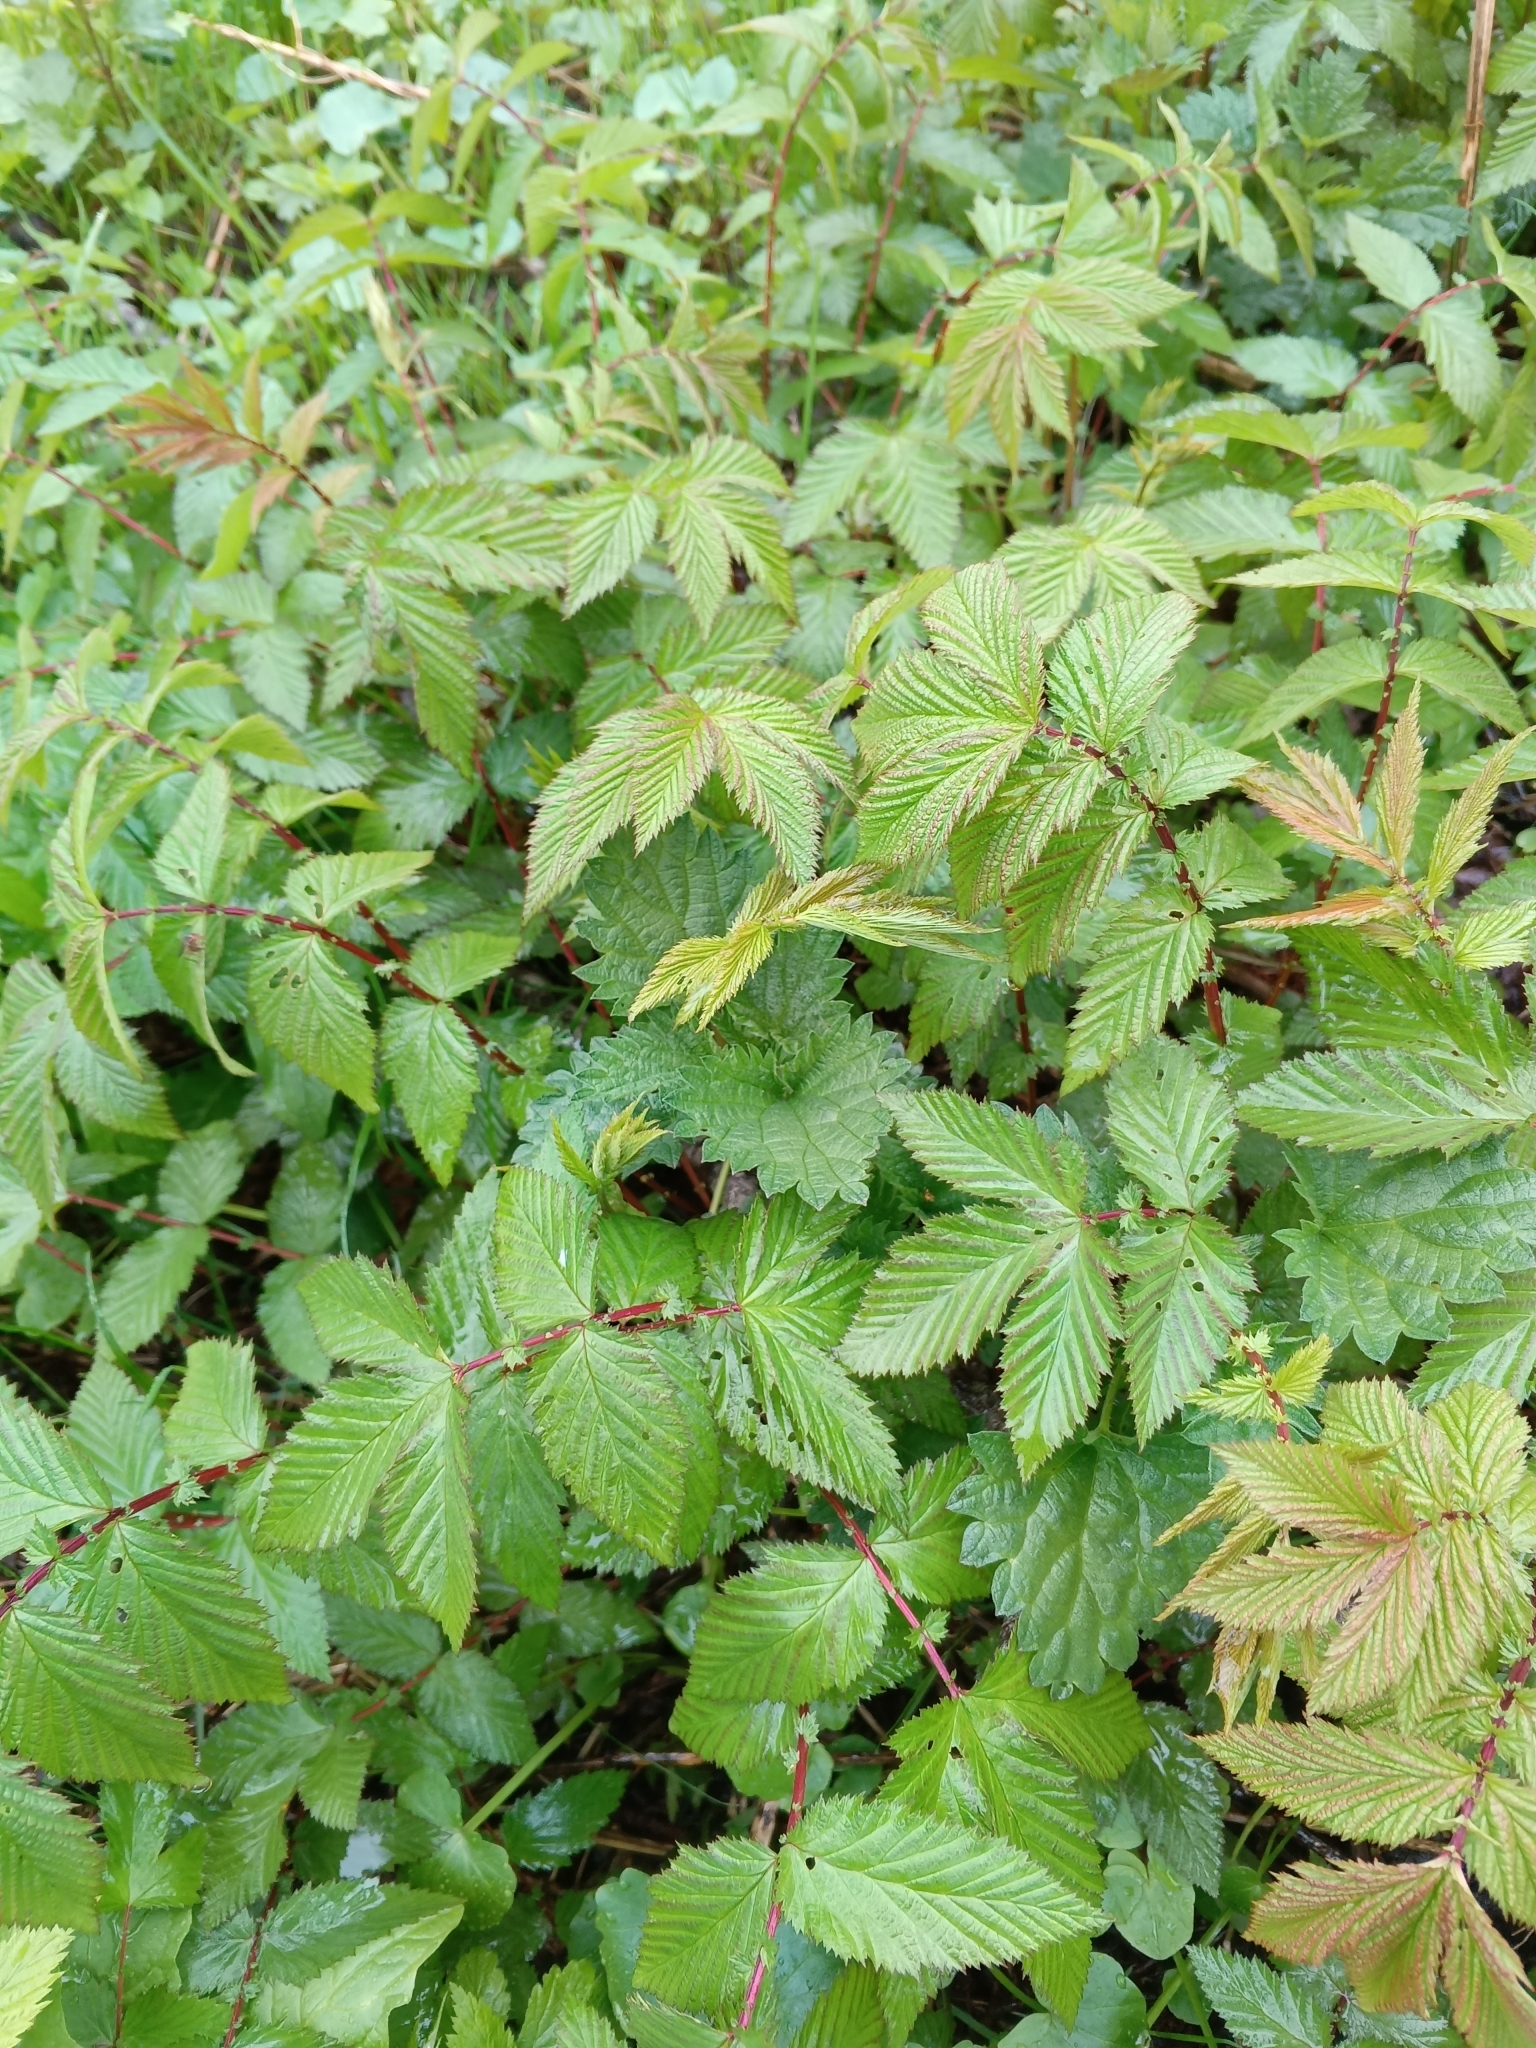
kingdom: Plantae
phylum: Tracheophyta
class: Magnoliopsida
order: Rosales
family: Rosaceae
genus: Filipendula
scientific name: Filipendula ulmaria
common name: Meadowsweet
